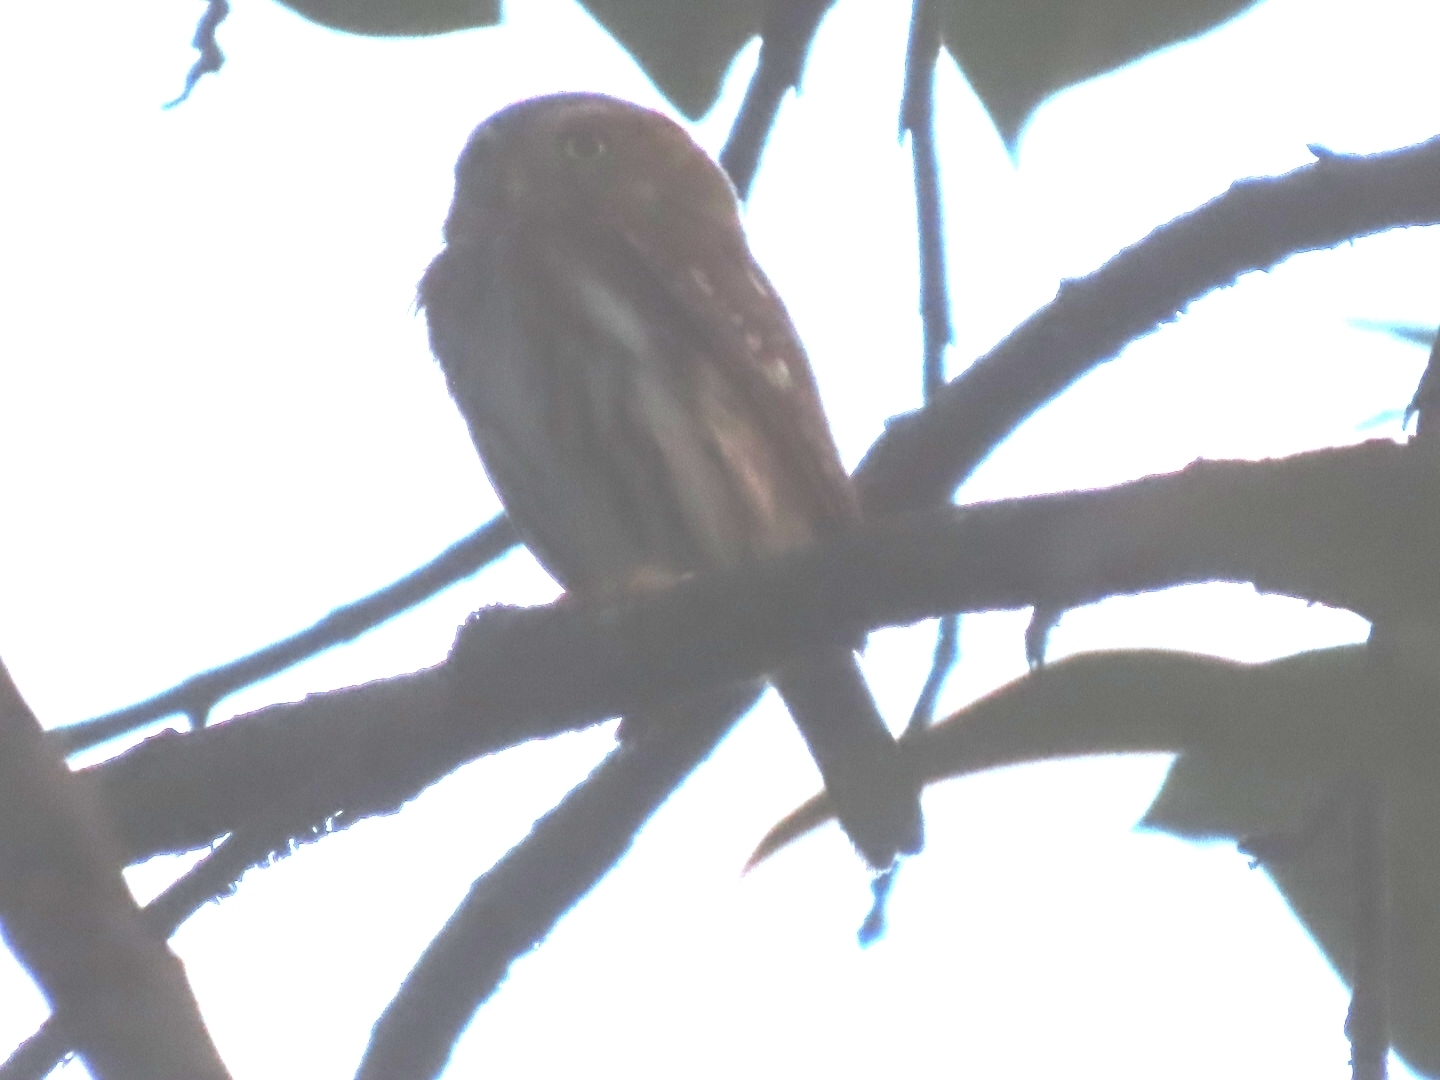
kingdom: Animalia
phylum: Chordata
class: Aves
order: Strigiformes
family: Strigidae
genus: Glaucidium
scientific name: Glaucidium brasilianum
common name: Ferruginous pygmy-owl
